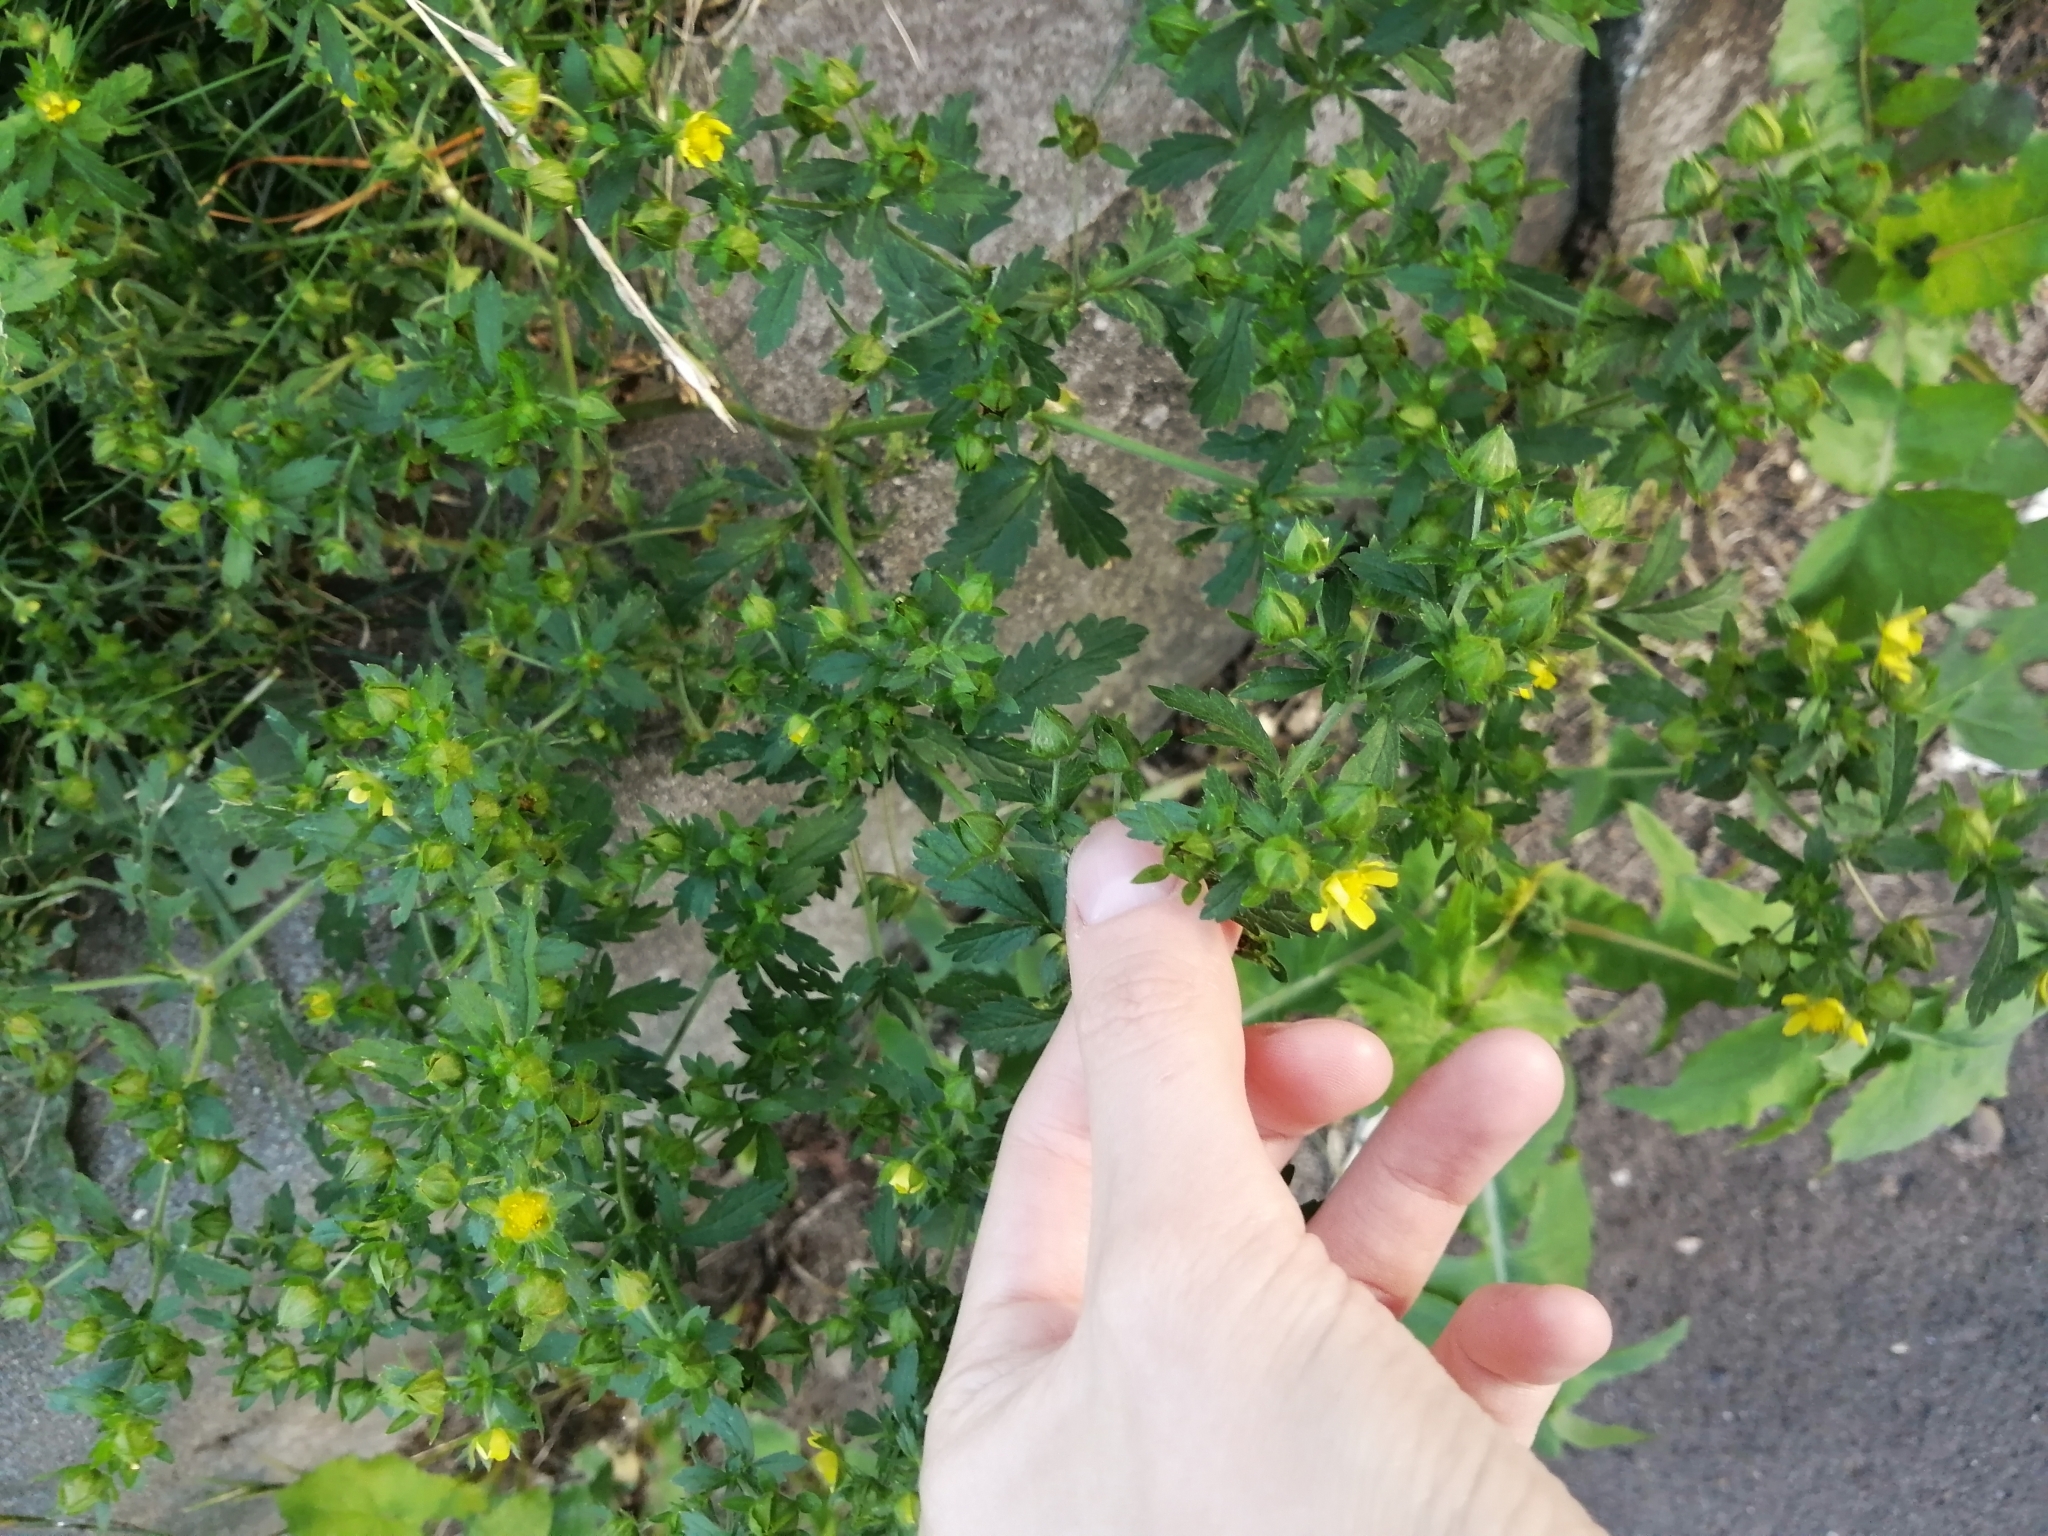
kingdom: Plantae
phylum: Tracheophyta
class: Magnoliopsida
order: Rosales
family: Rosaceae
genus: Potentilla
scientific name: Potentilla norvegica
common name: Ternate-leaved cinquefoil
